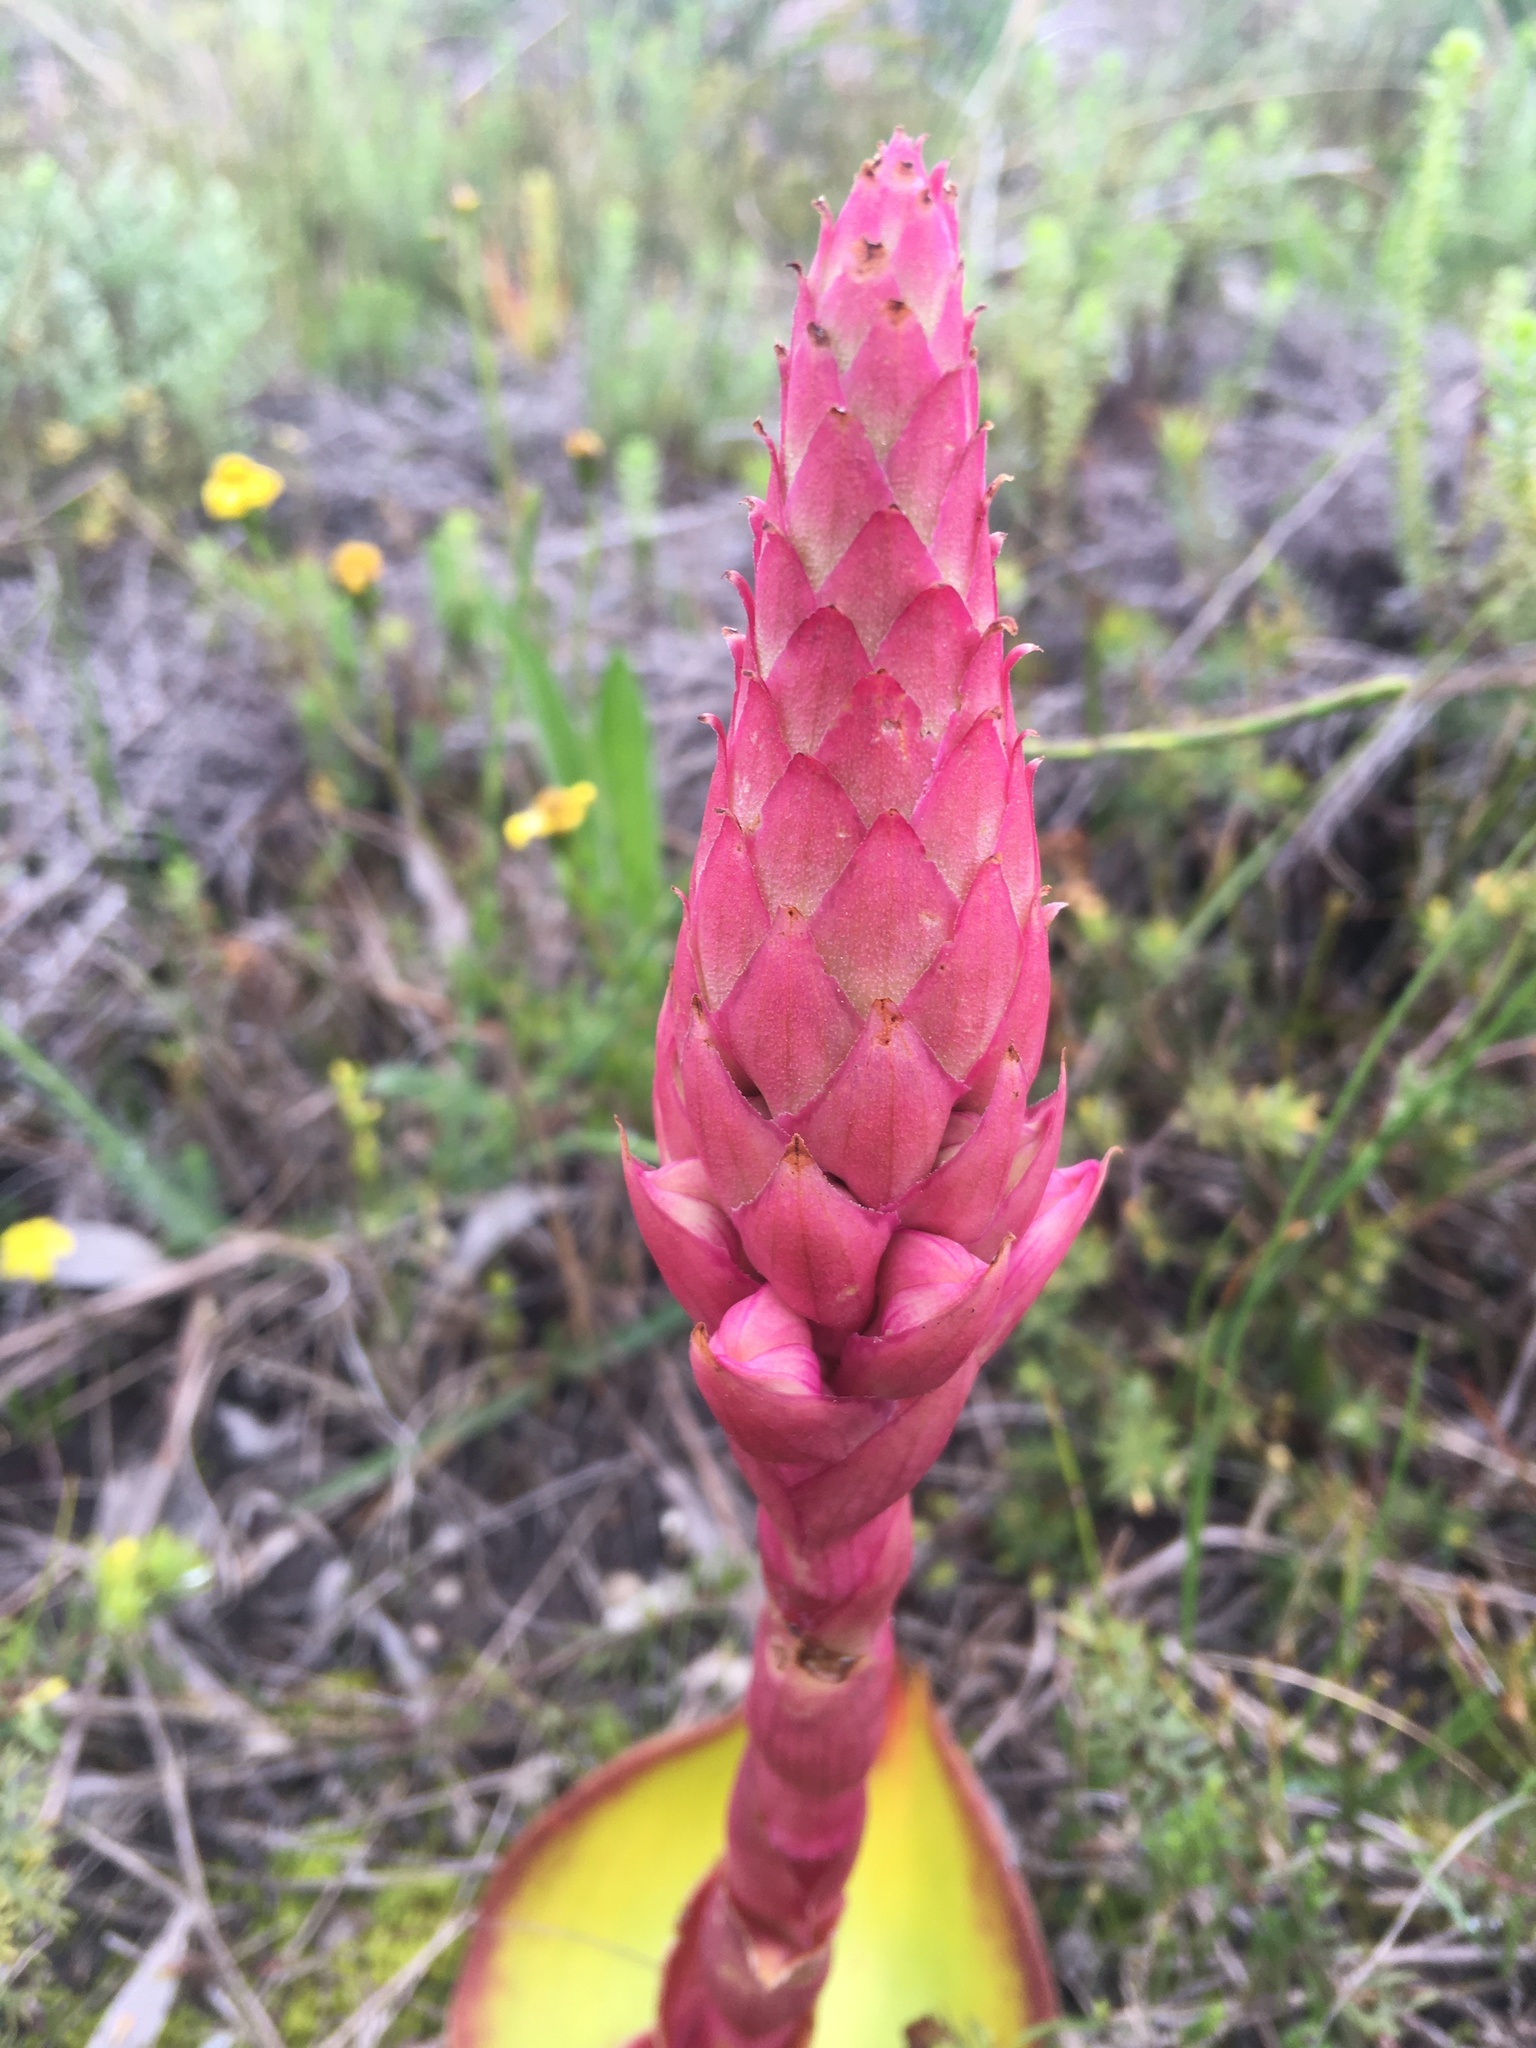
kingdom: Plantae
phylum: Tracheophyta
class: Liliopsida
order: Asparagales
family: Orchidaceae
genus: Satyrium
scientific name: Satyrium carneum
